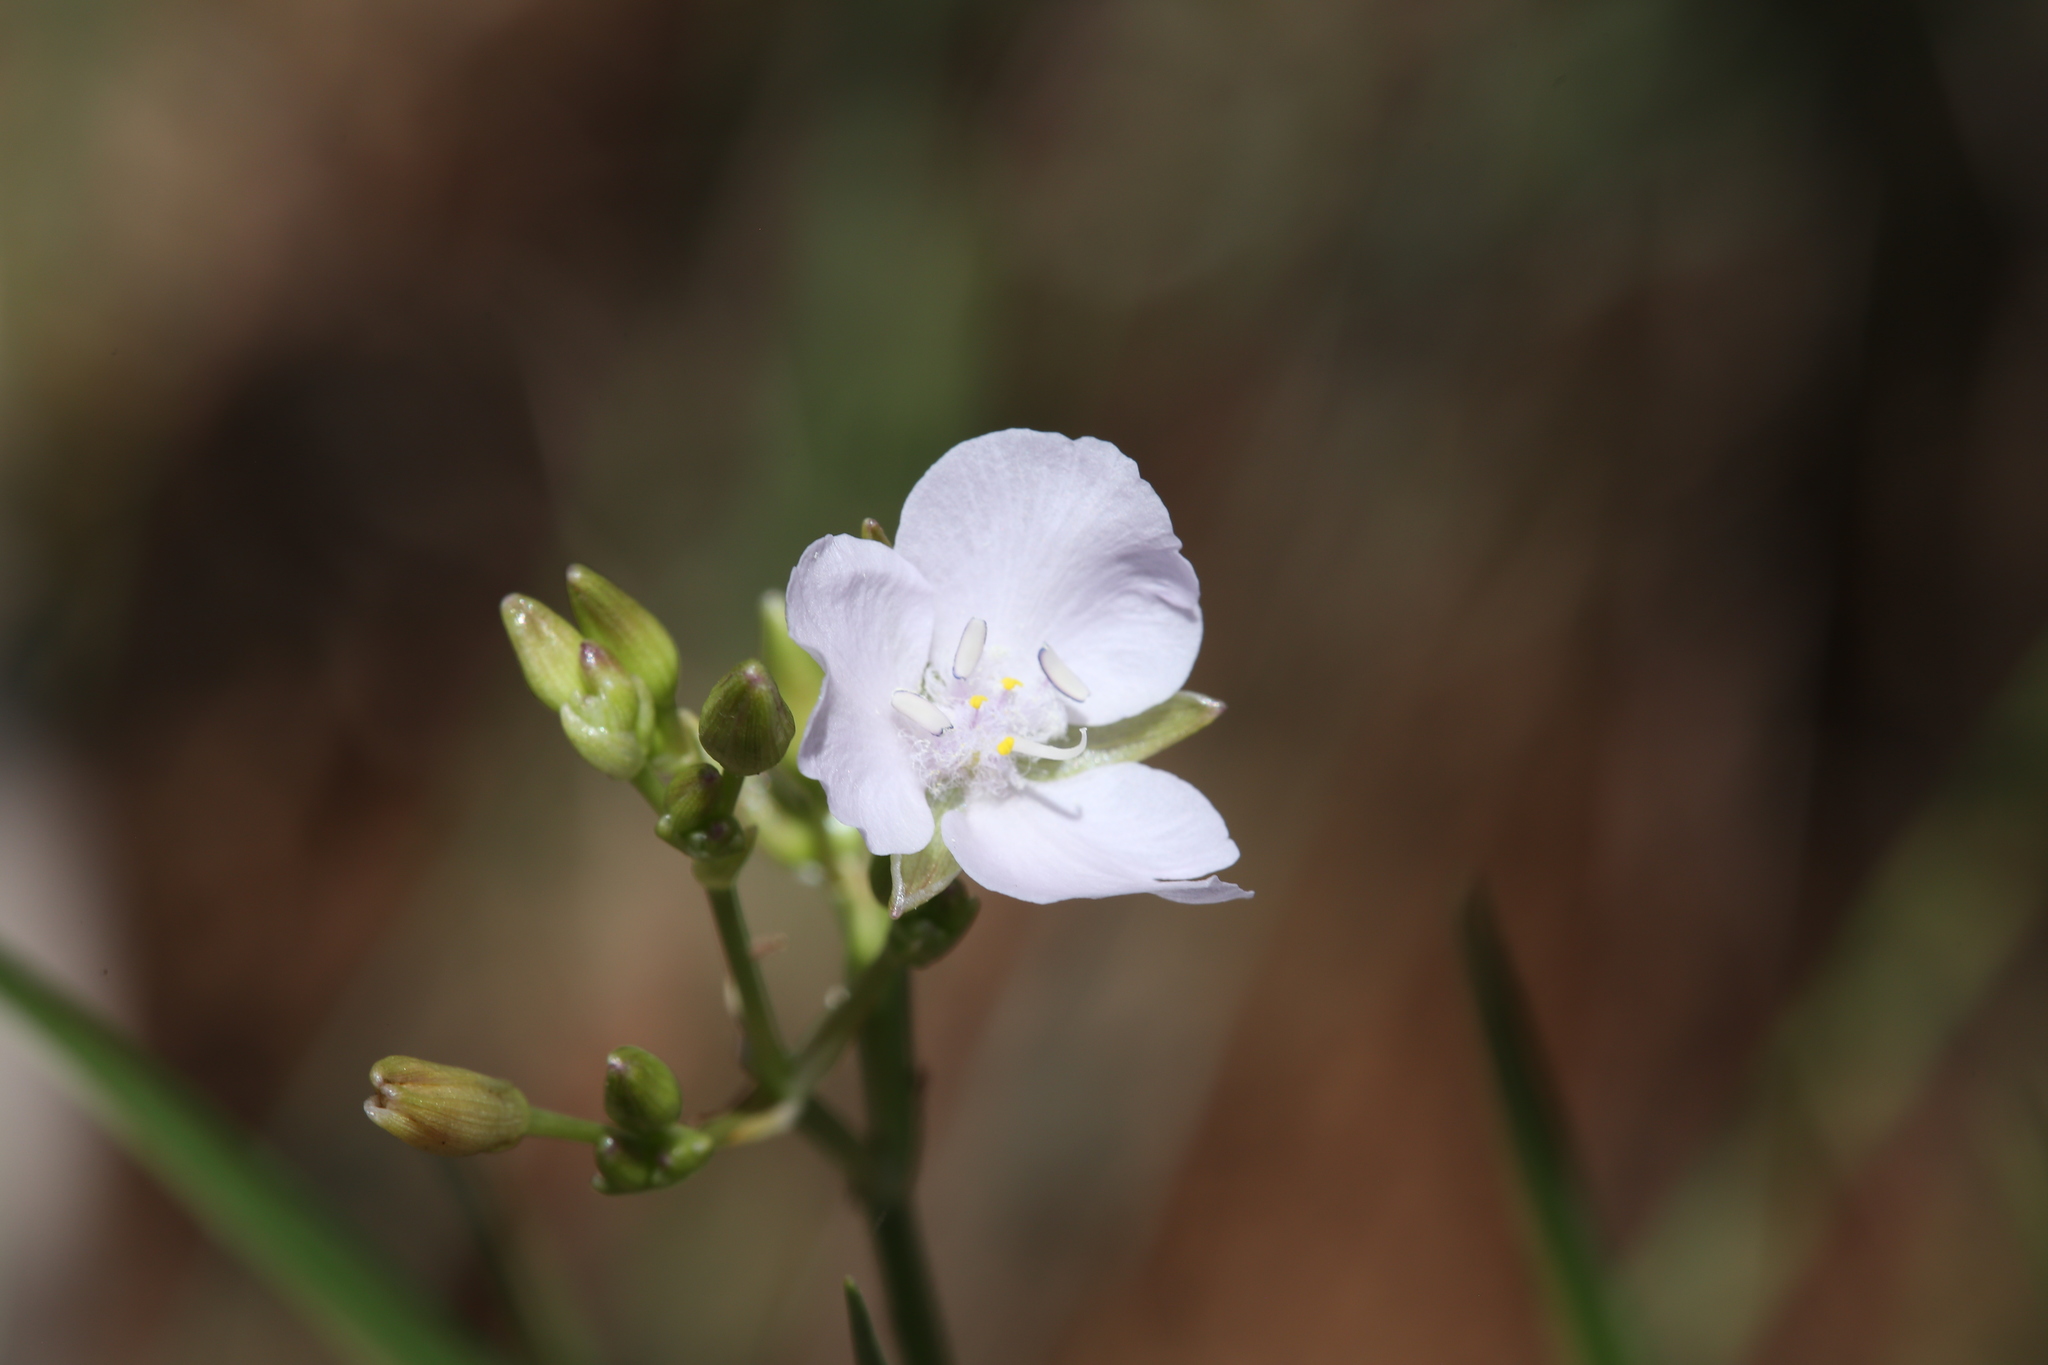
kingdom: Plantae
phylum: Tracheophyta
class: Liliopsida
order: Commelinales
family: Commelinaceae
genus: Murdannia
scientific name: Murdannia graminea
